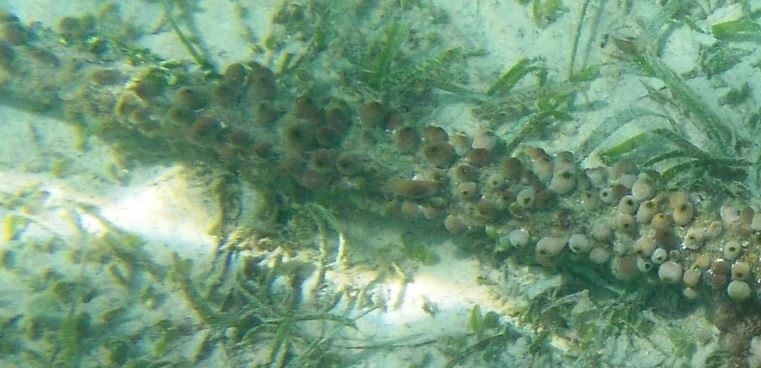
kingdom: Animalia
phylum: Chordata
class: Ascidiacea
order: Aplousobranchia
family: Didemnidae
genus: Didemnum
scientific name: Didemnum molle
